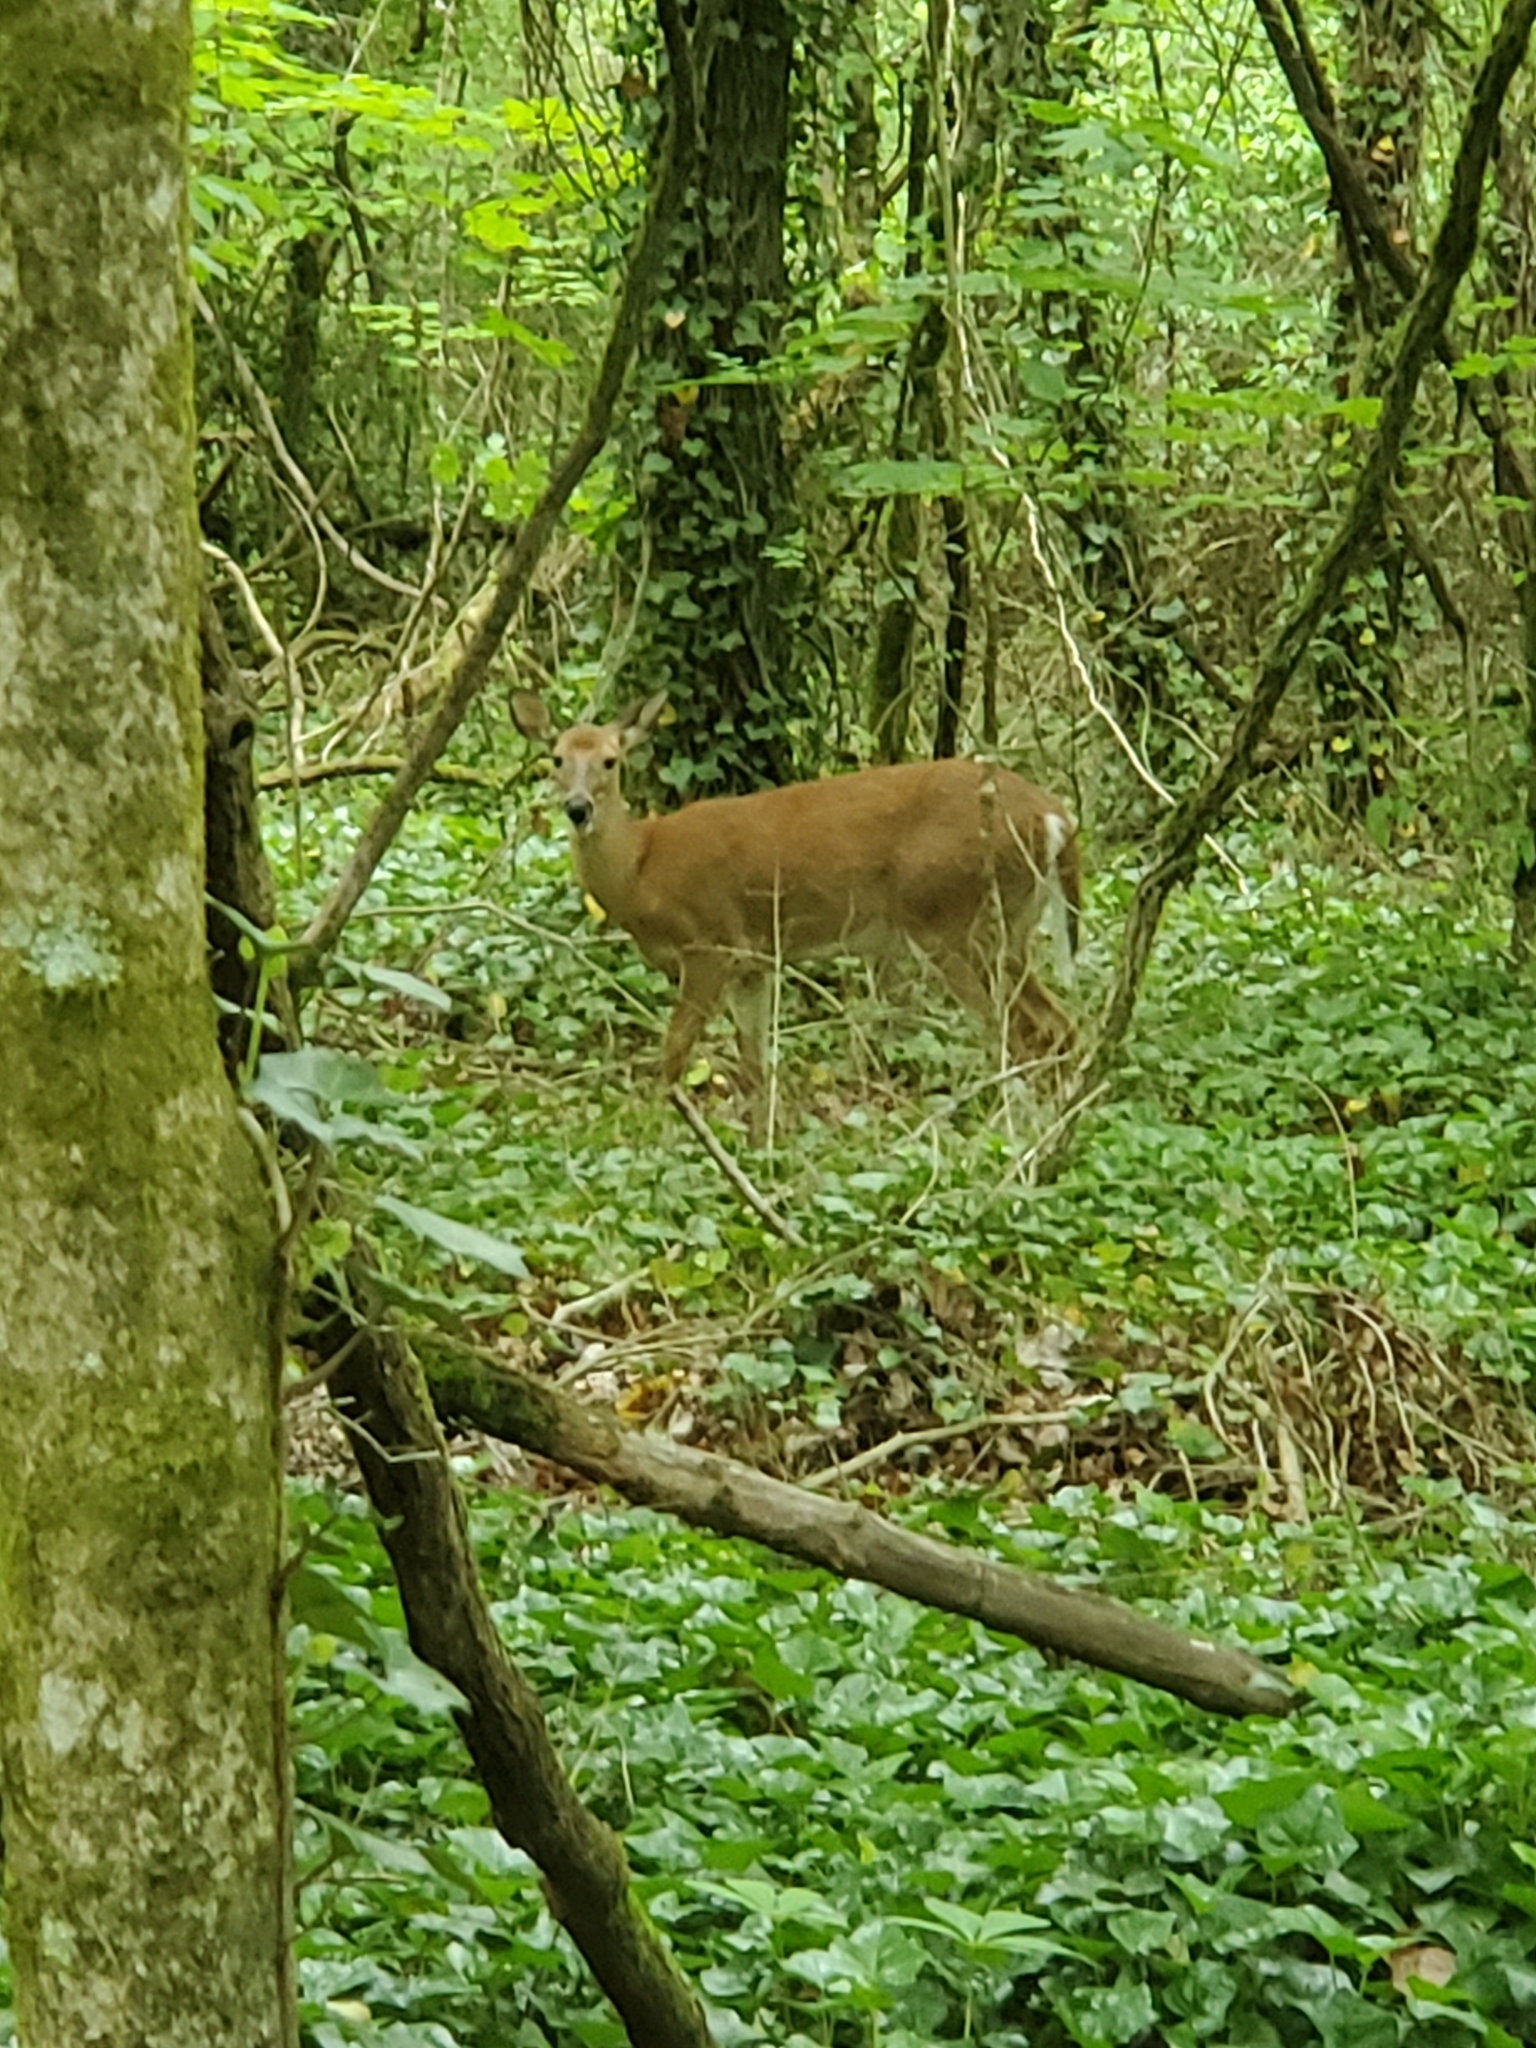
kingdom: Animalia
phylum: Chordata
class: Mammalia
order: Artiodactyla
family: Cervidae
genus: Odocoileus
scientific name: Odocoileus virginianus
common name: White-tailed deer
